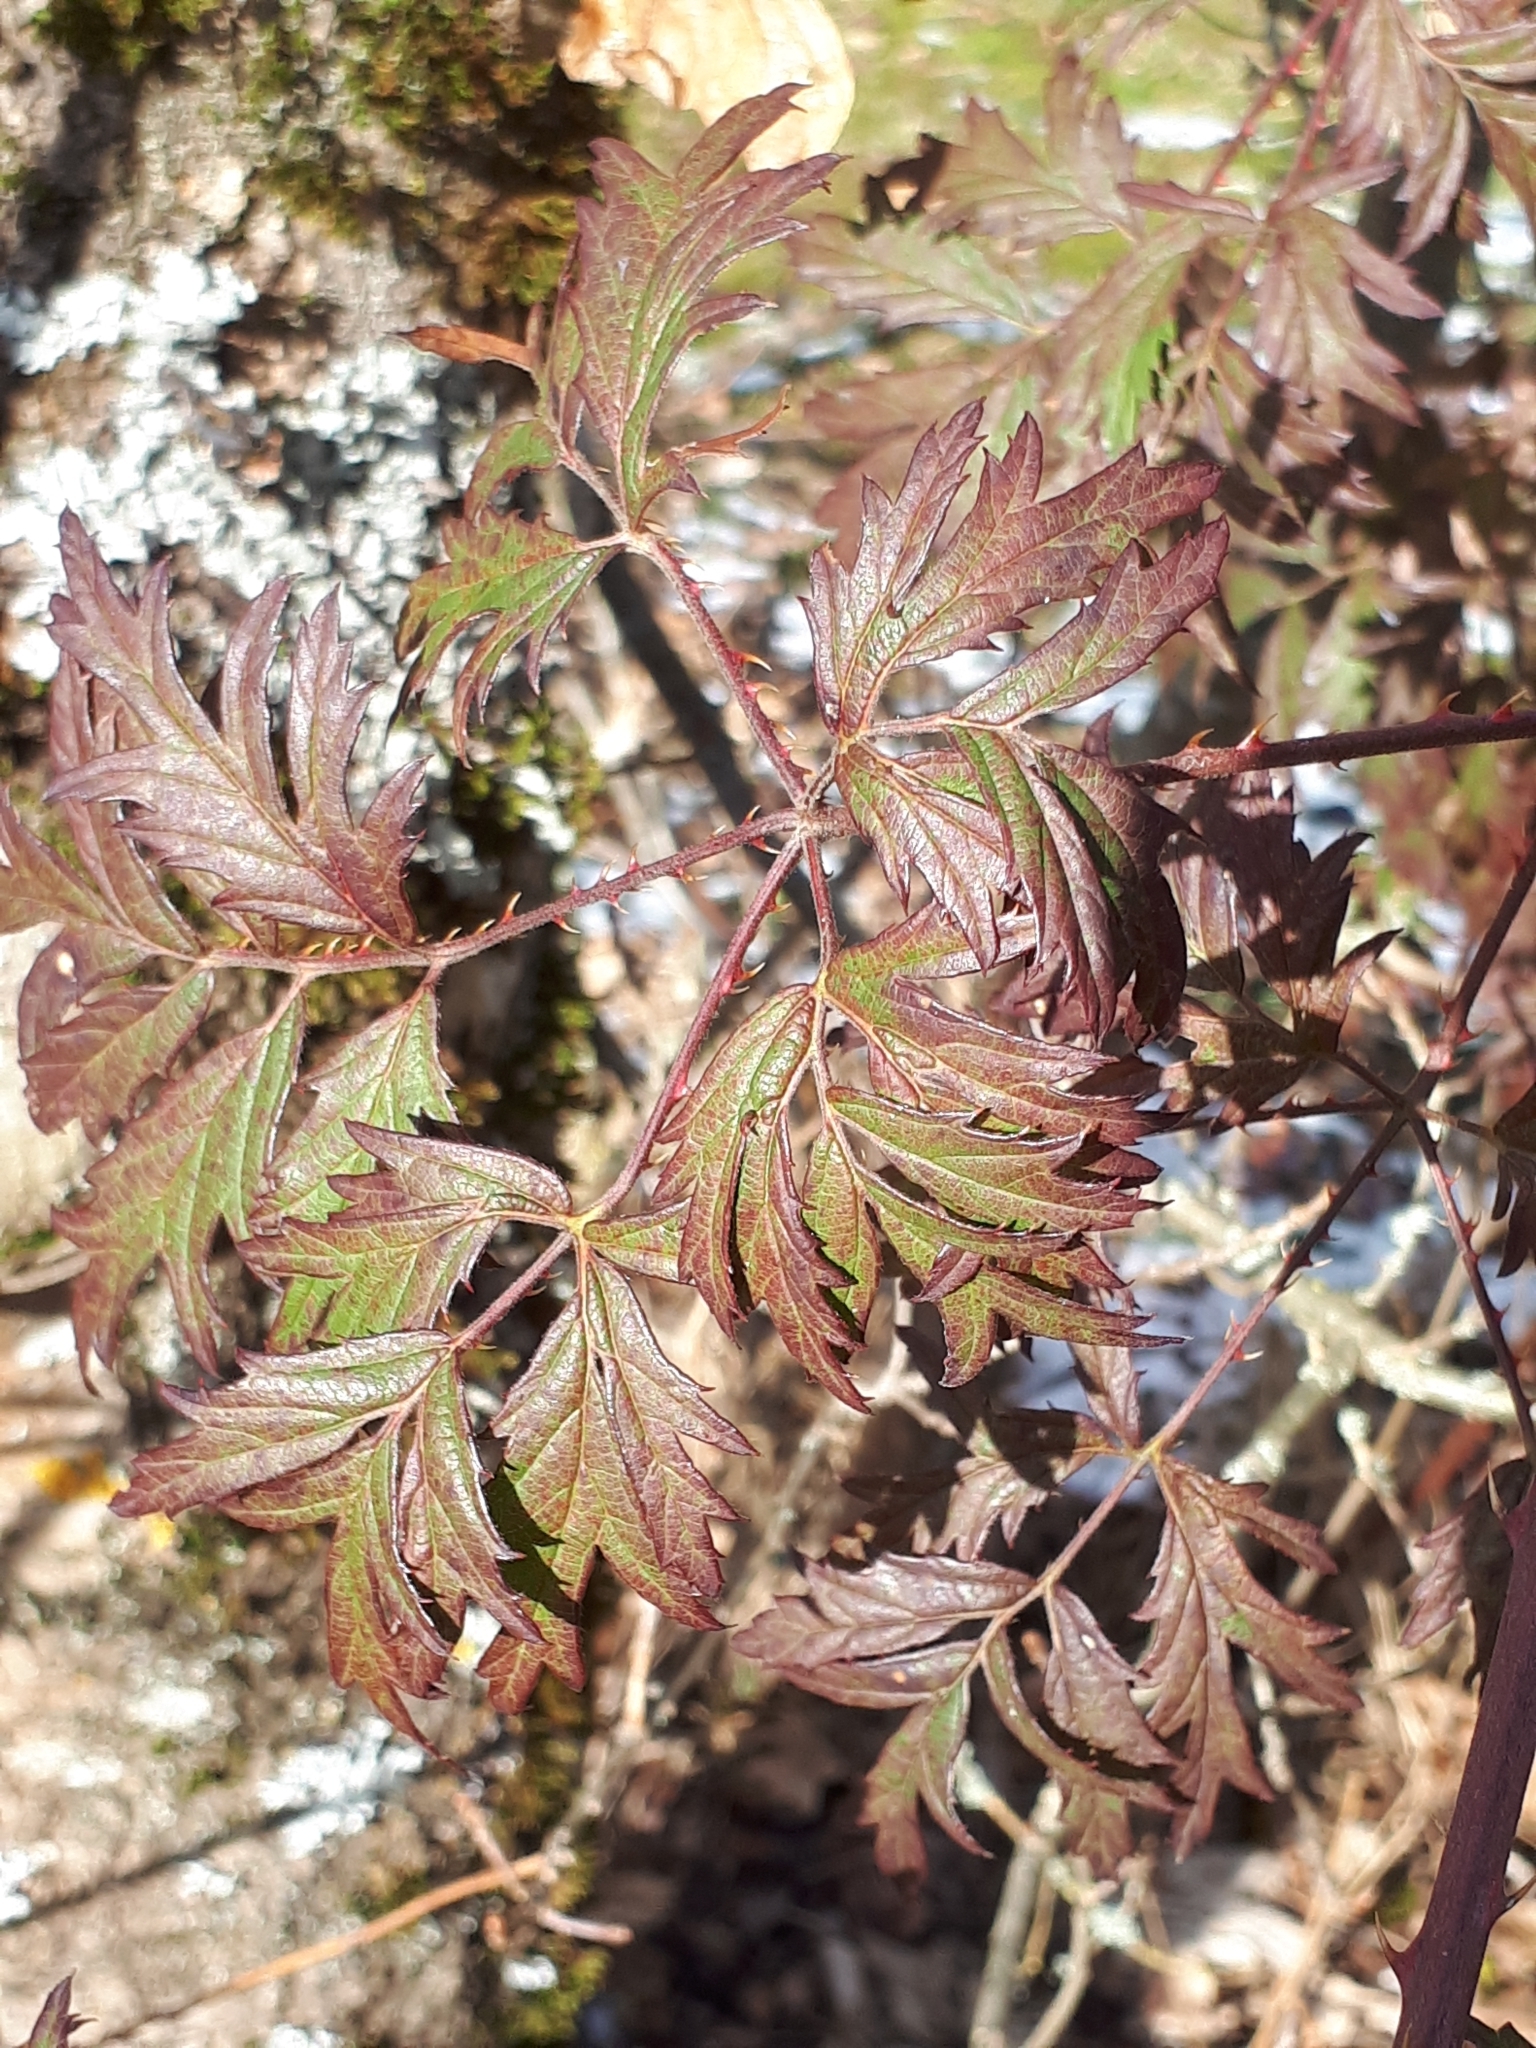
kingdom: Plantae
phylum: Tracheophyta
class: Magnoliopsida
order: Rosales
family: Rosaceae
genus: Rubus
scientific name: Rubus laciniatus
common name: Evergreen blackberry
